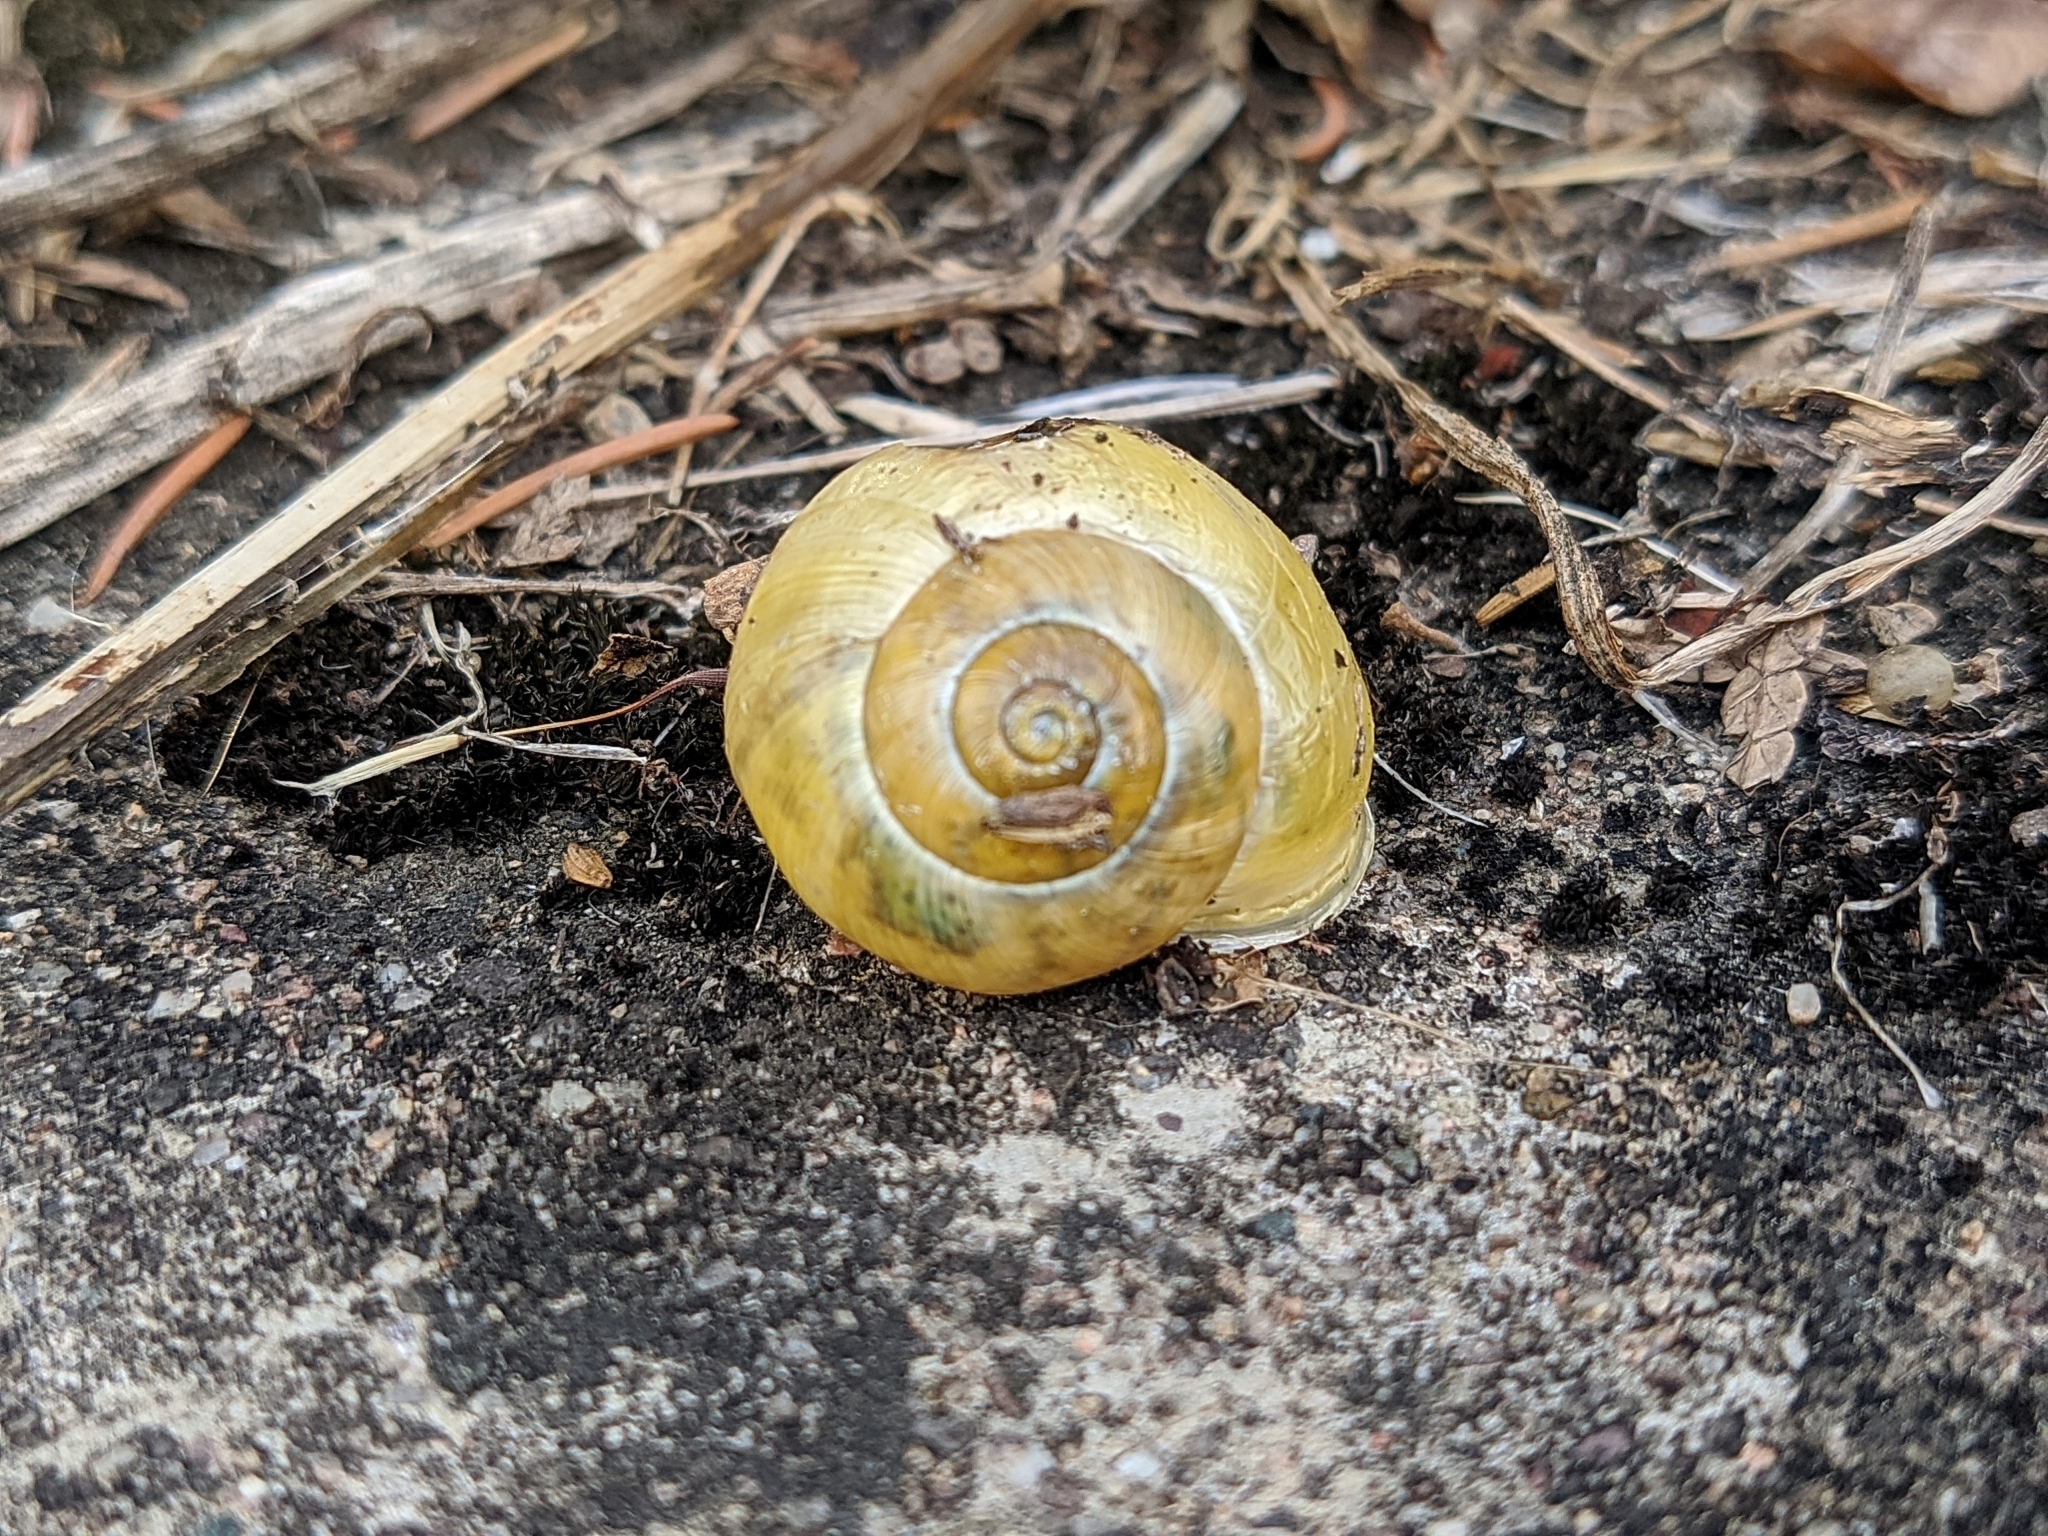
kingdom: Animalia
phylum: Mollusca
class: Gastropoda
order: Stylommatophora
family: Helicidae
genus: Cepaea
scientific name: Cepaea hortensis
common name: White-lip gardensnail
